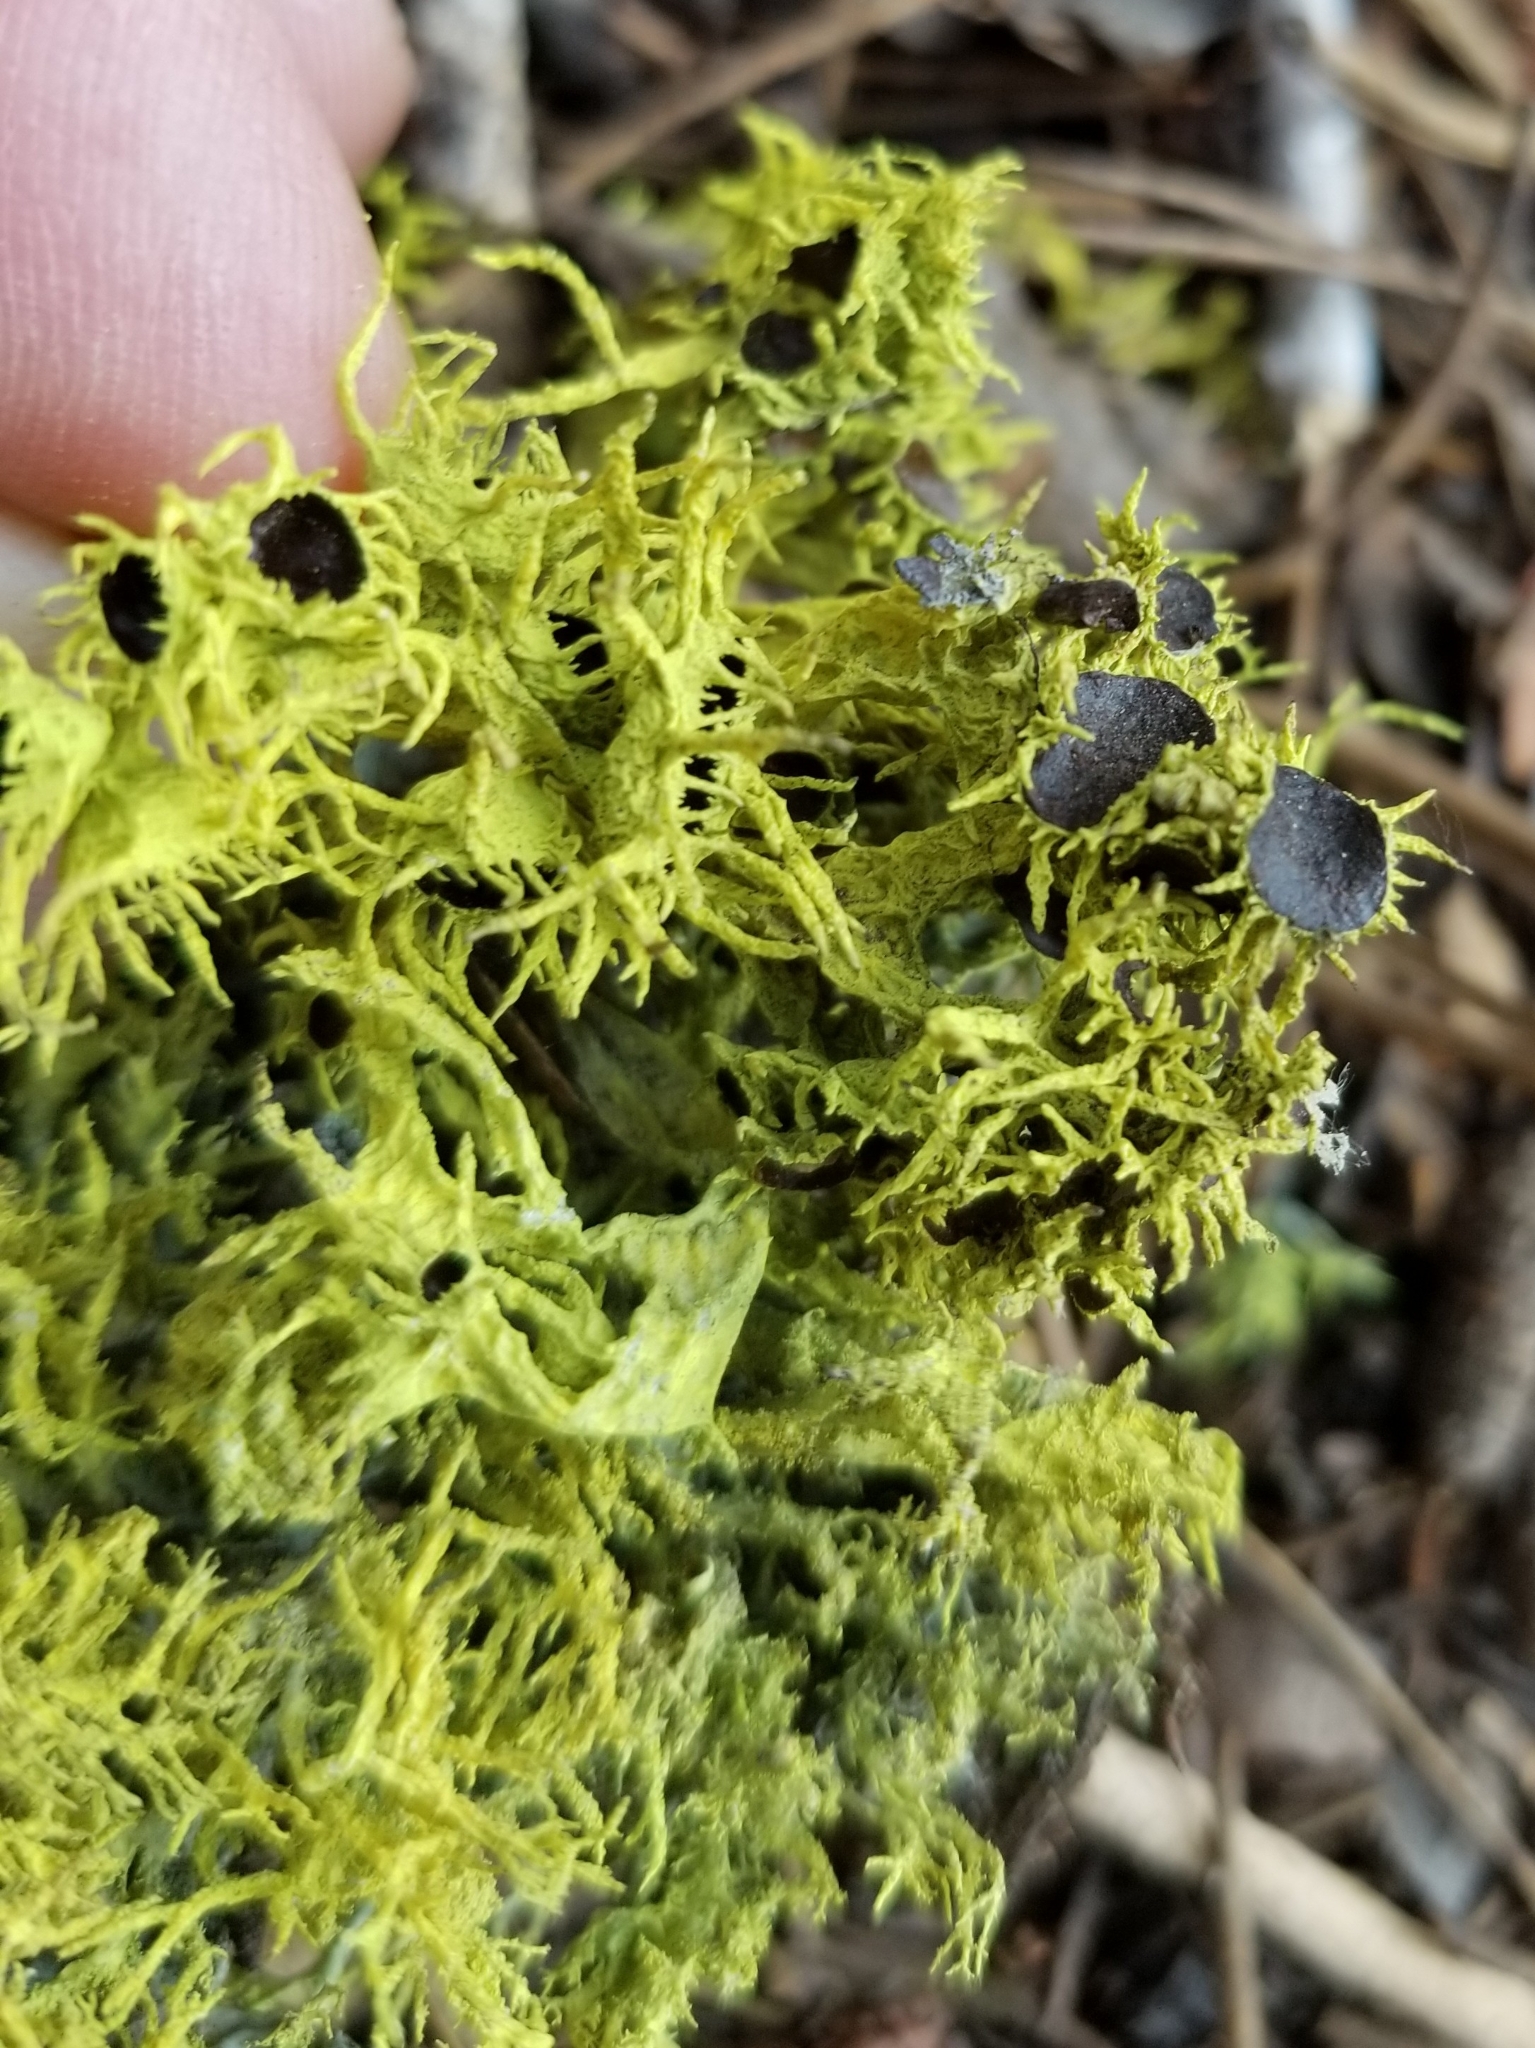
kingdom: Fungi
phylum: Ascomycota
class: Lecanoromycetes
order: Lecanorales
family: Parmeliaceae
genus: Letharia
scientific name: Letharia
